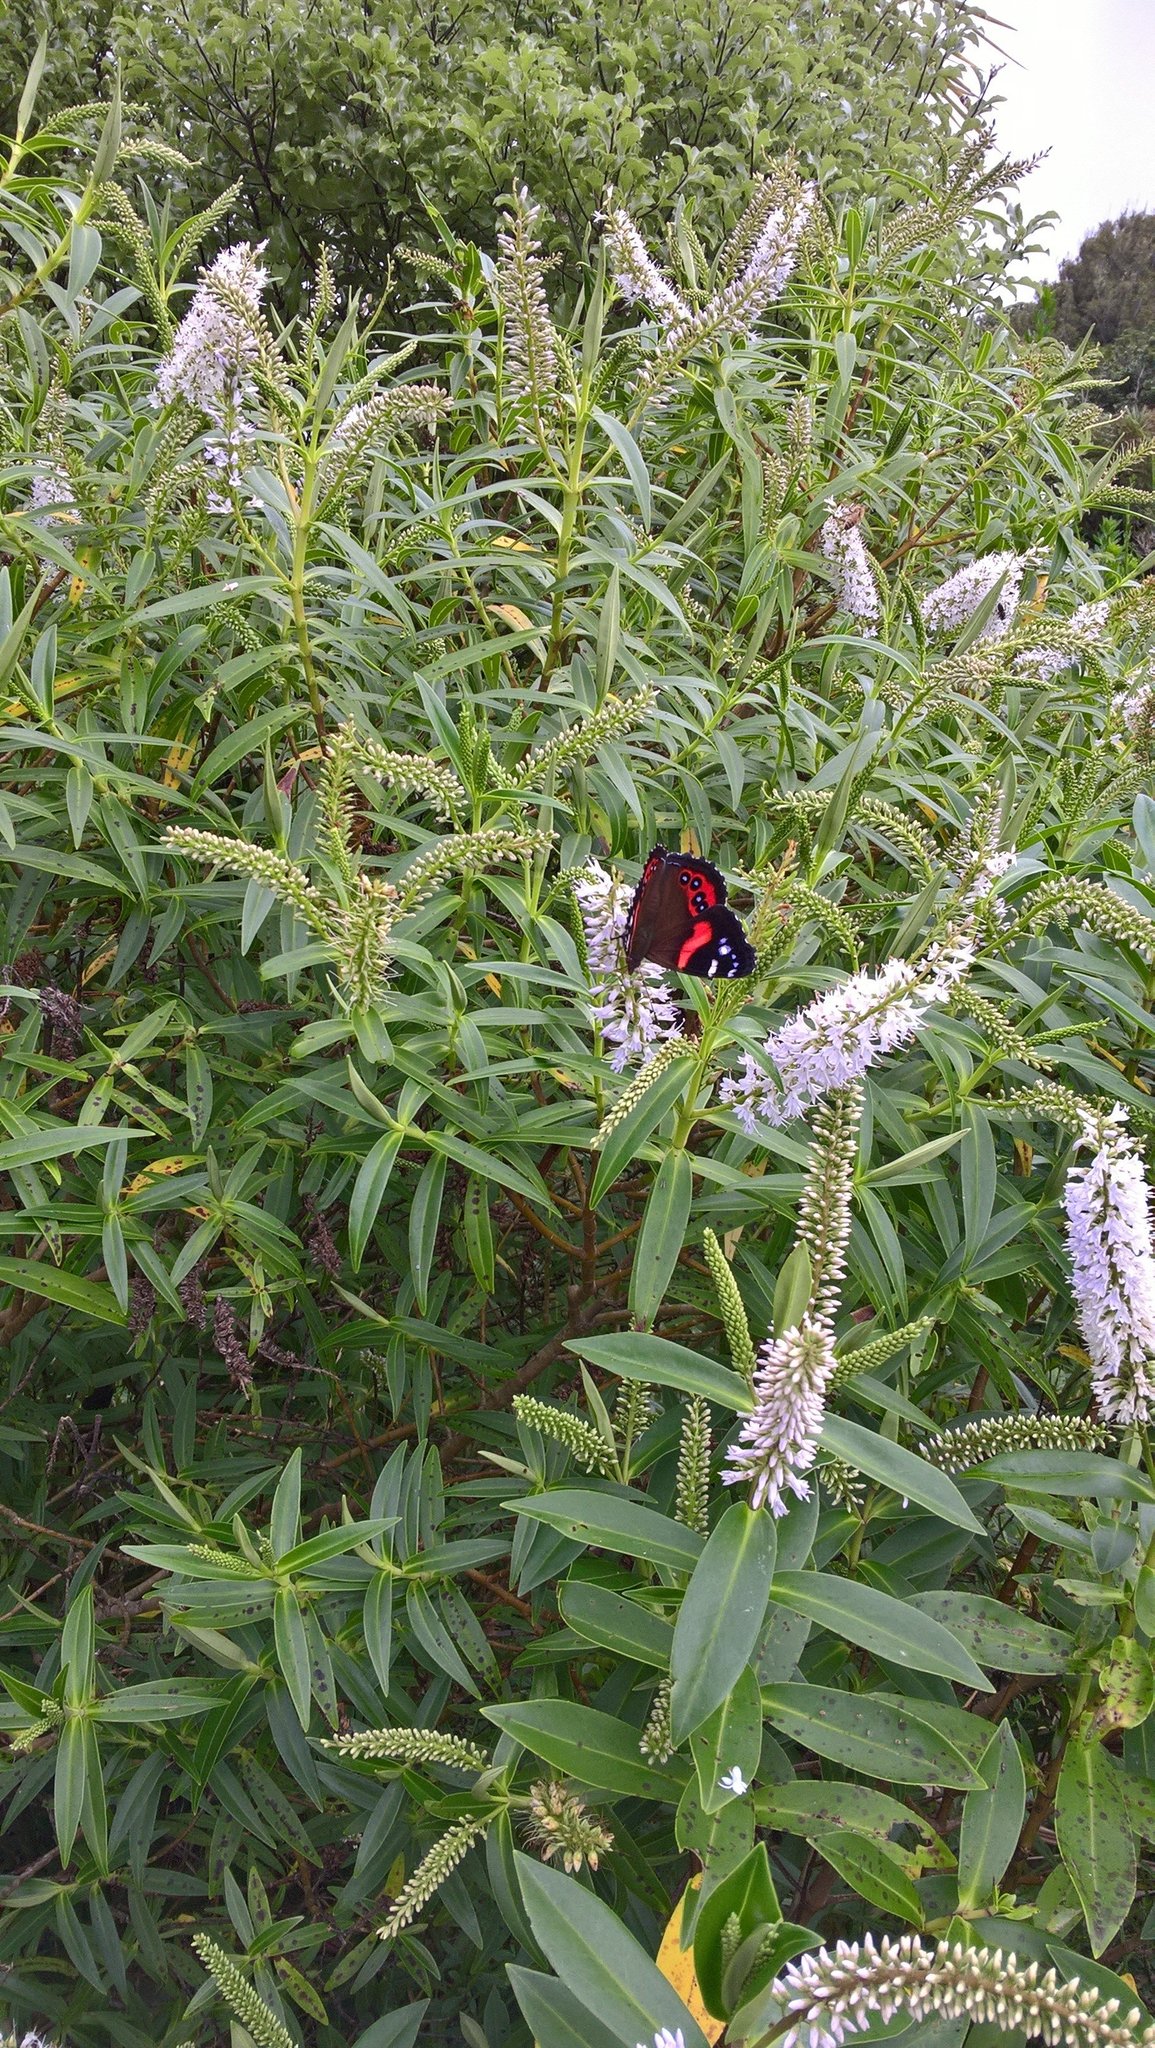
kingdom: Animalia
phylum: Arthropoda
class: Insecta
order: Lepidoptera
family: Nymphalidae
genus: Vanessa
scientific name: Vanessa gonerilla
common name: New zealand red admiral
